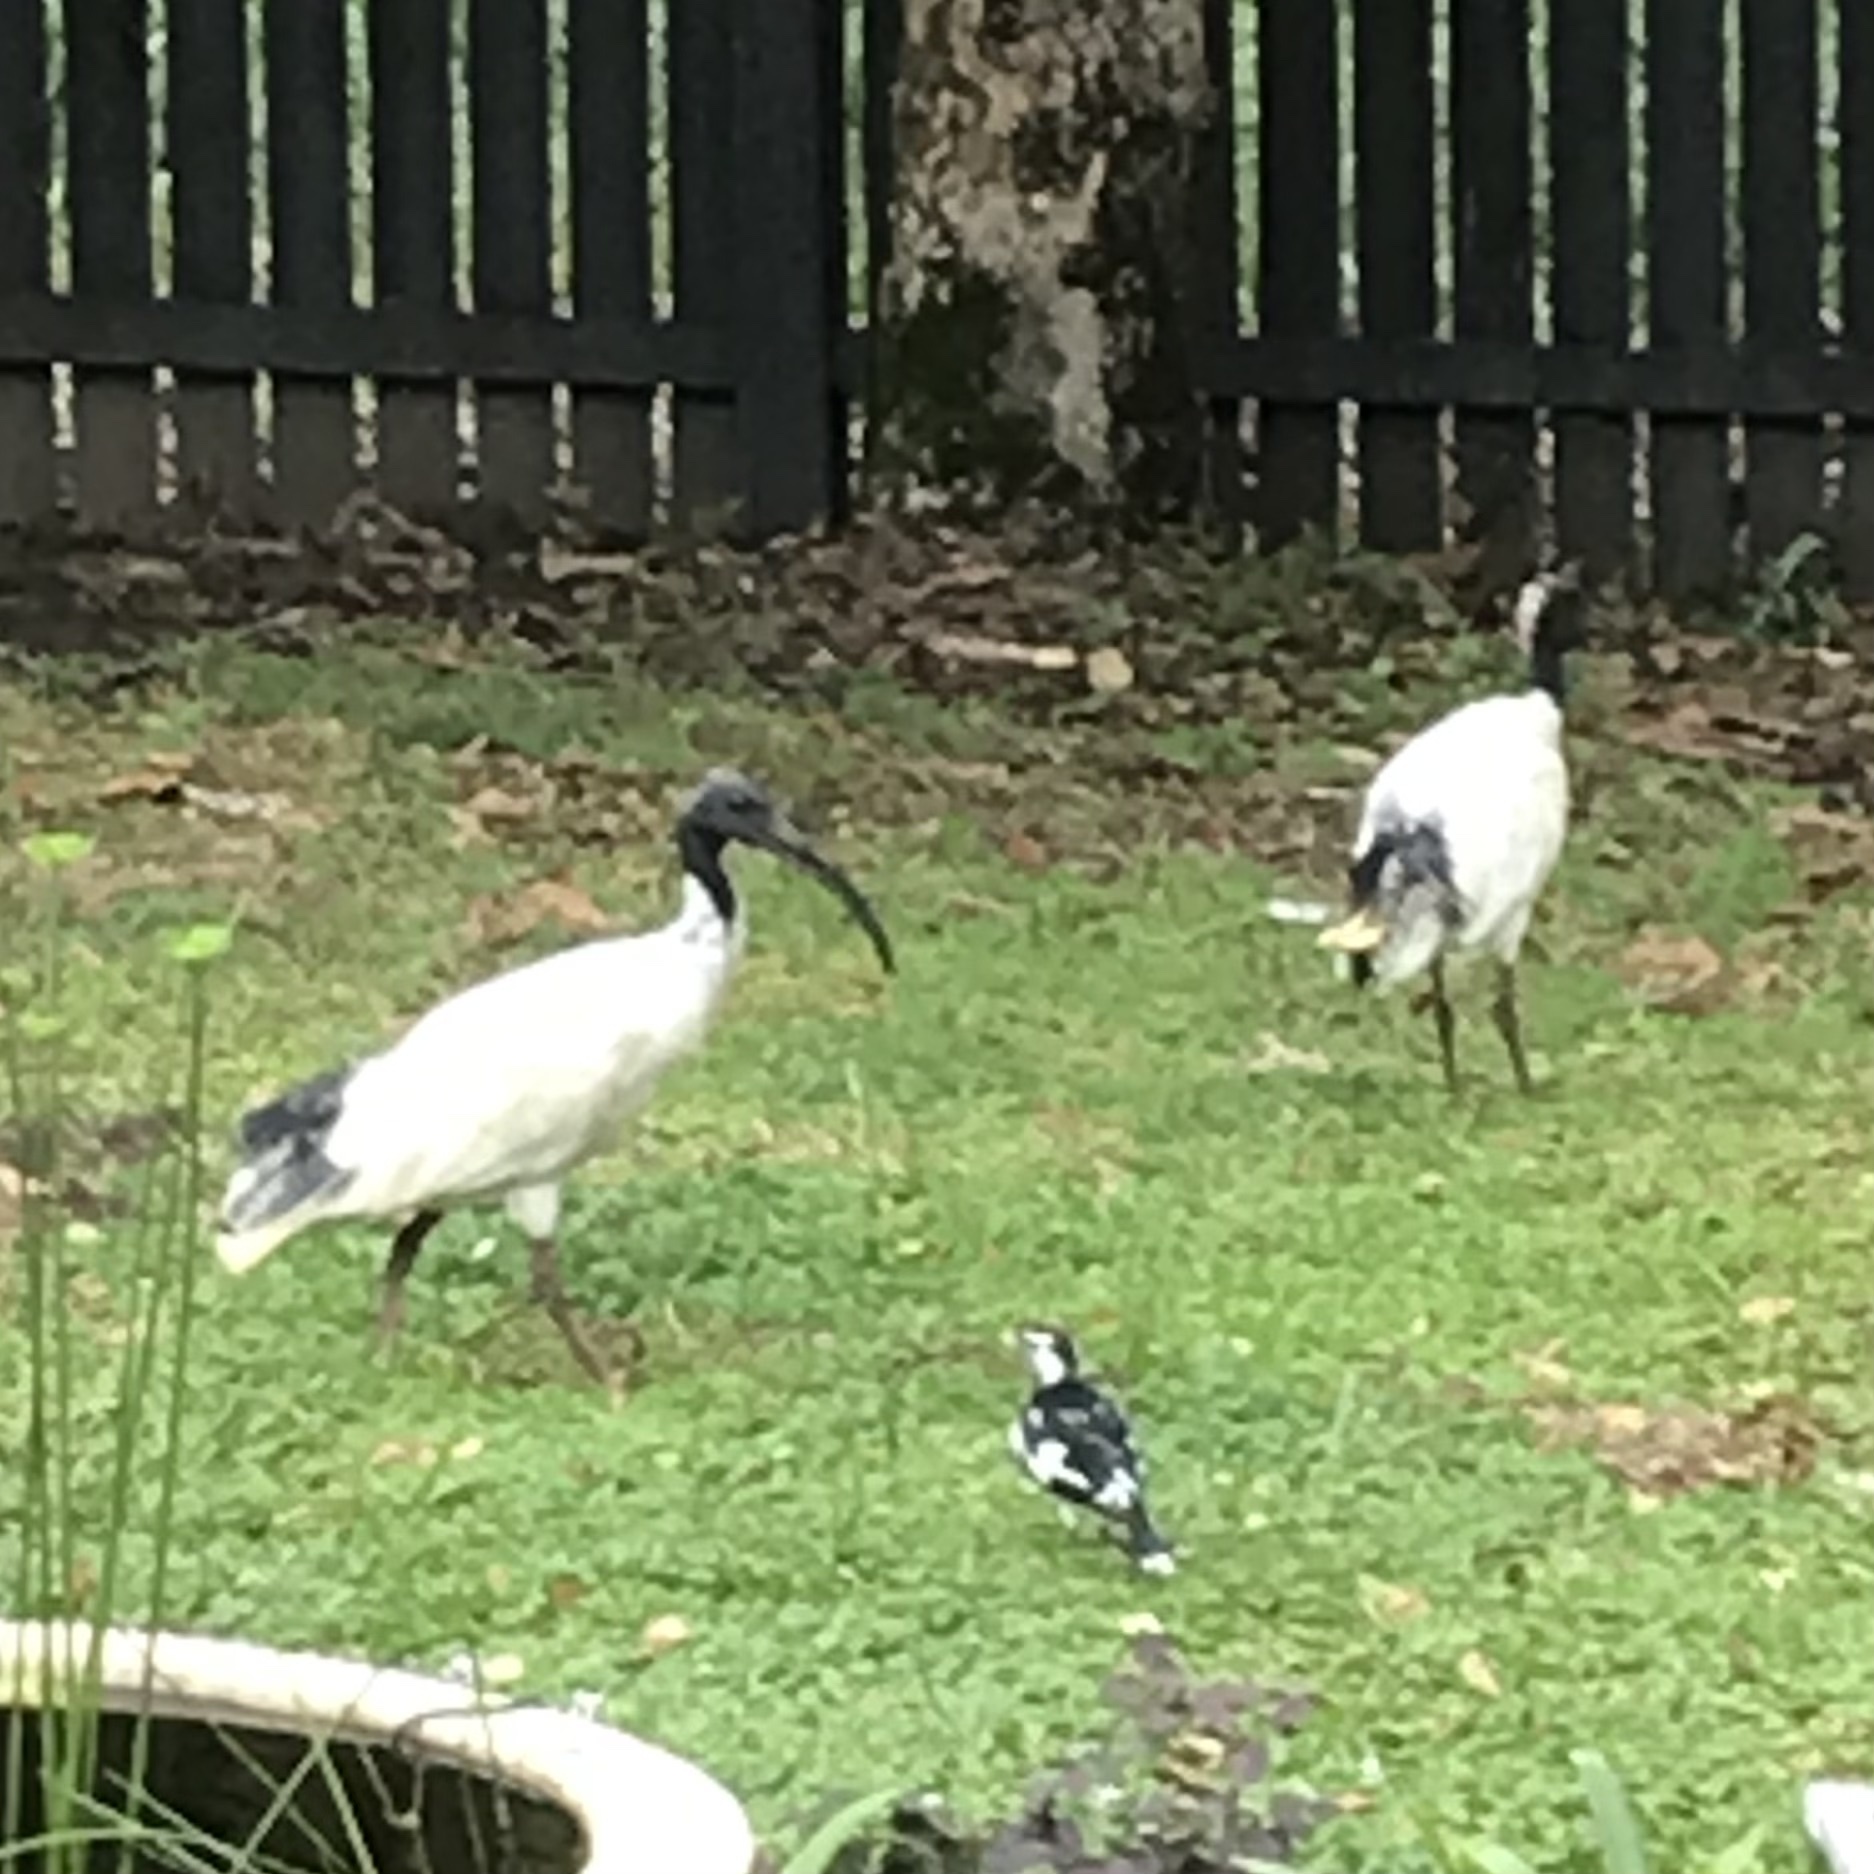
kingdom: Animalia
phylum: Chordata
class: Aves
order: Pelecaniformes
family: Threskiornithidae
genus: Threskiornis
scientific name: Threskiornis molucca
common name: Australian white ibis
